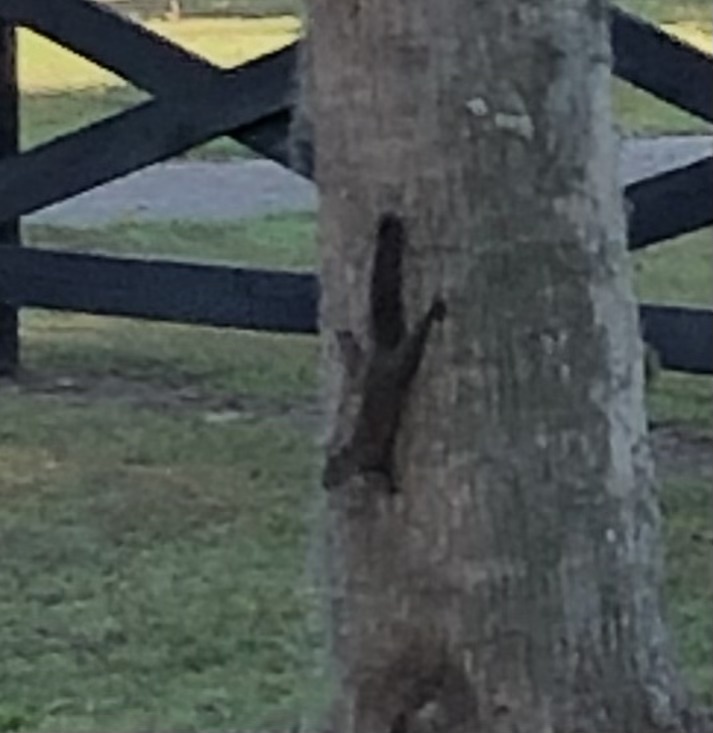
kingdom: Animalia
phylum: Chordata
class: Mammalia
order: Rodentia
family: Sciuridae
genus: Sciurus
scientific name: Sciurus carolinensis
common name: Eastern gray squirrel
